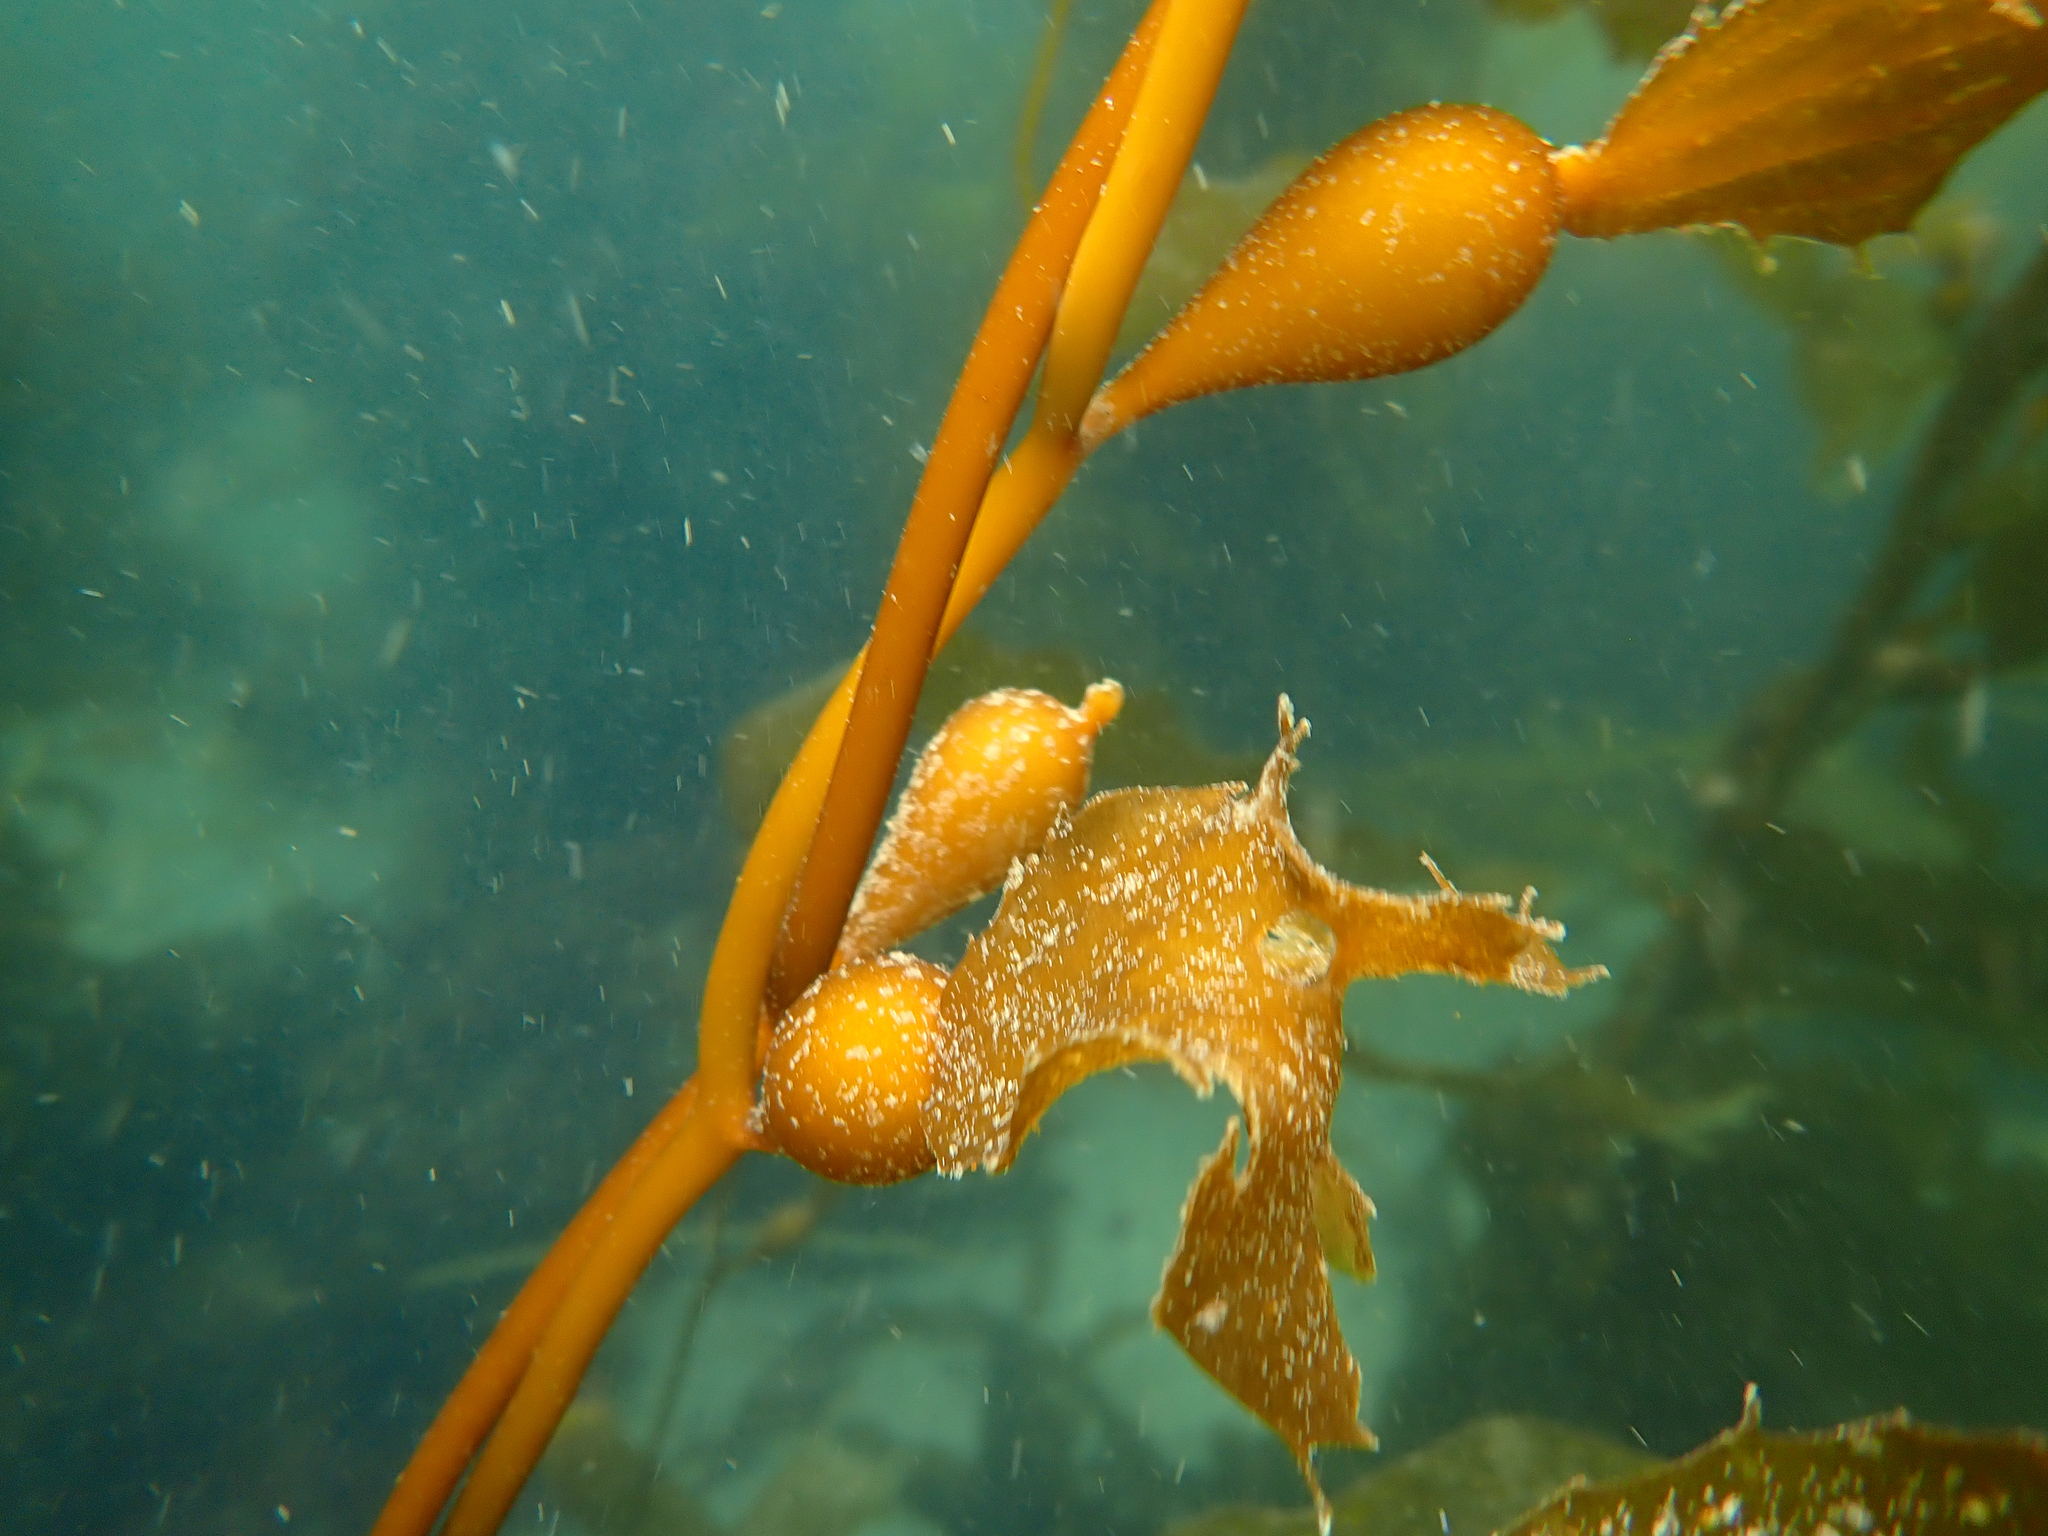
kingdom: Chromista
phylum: Ochrophyta
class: Phaeophyceae
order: Laminariales
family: Laminariaceae
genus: Macrocystis
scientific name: Macrocystis pyrifera
